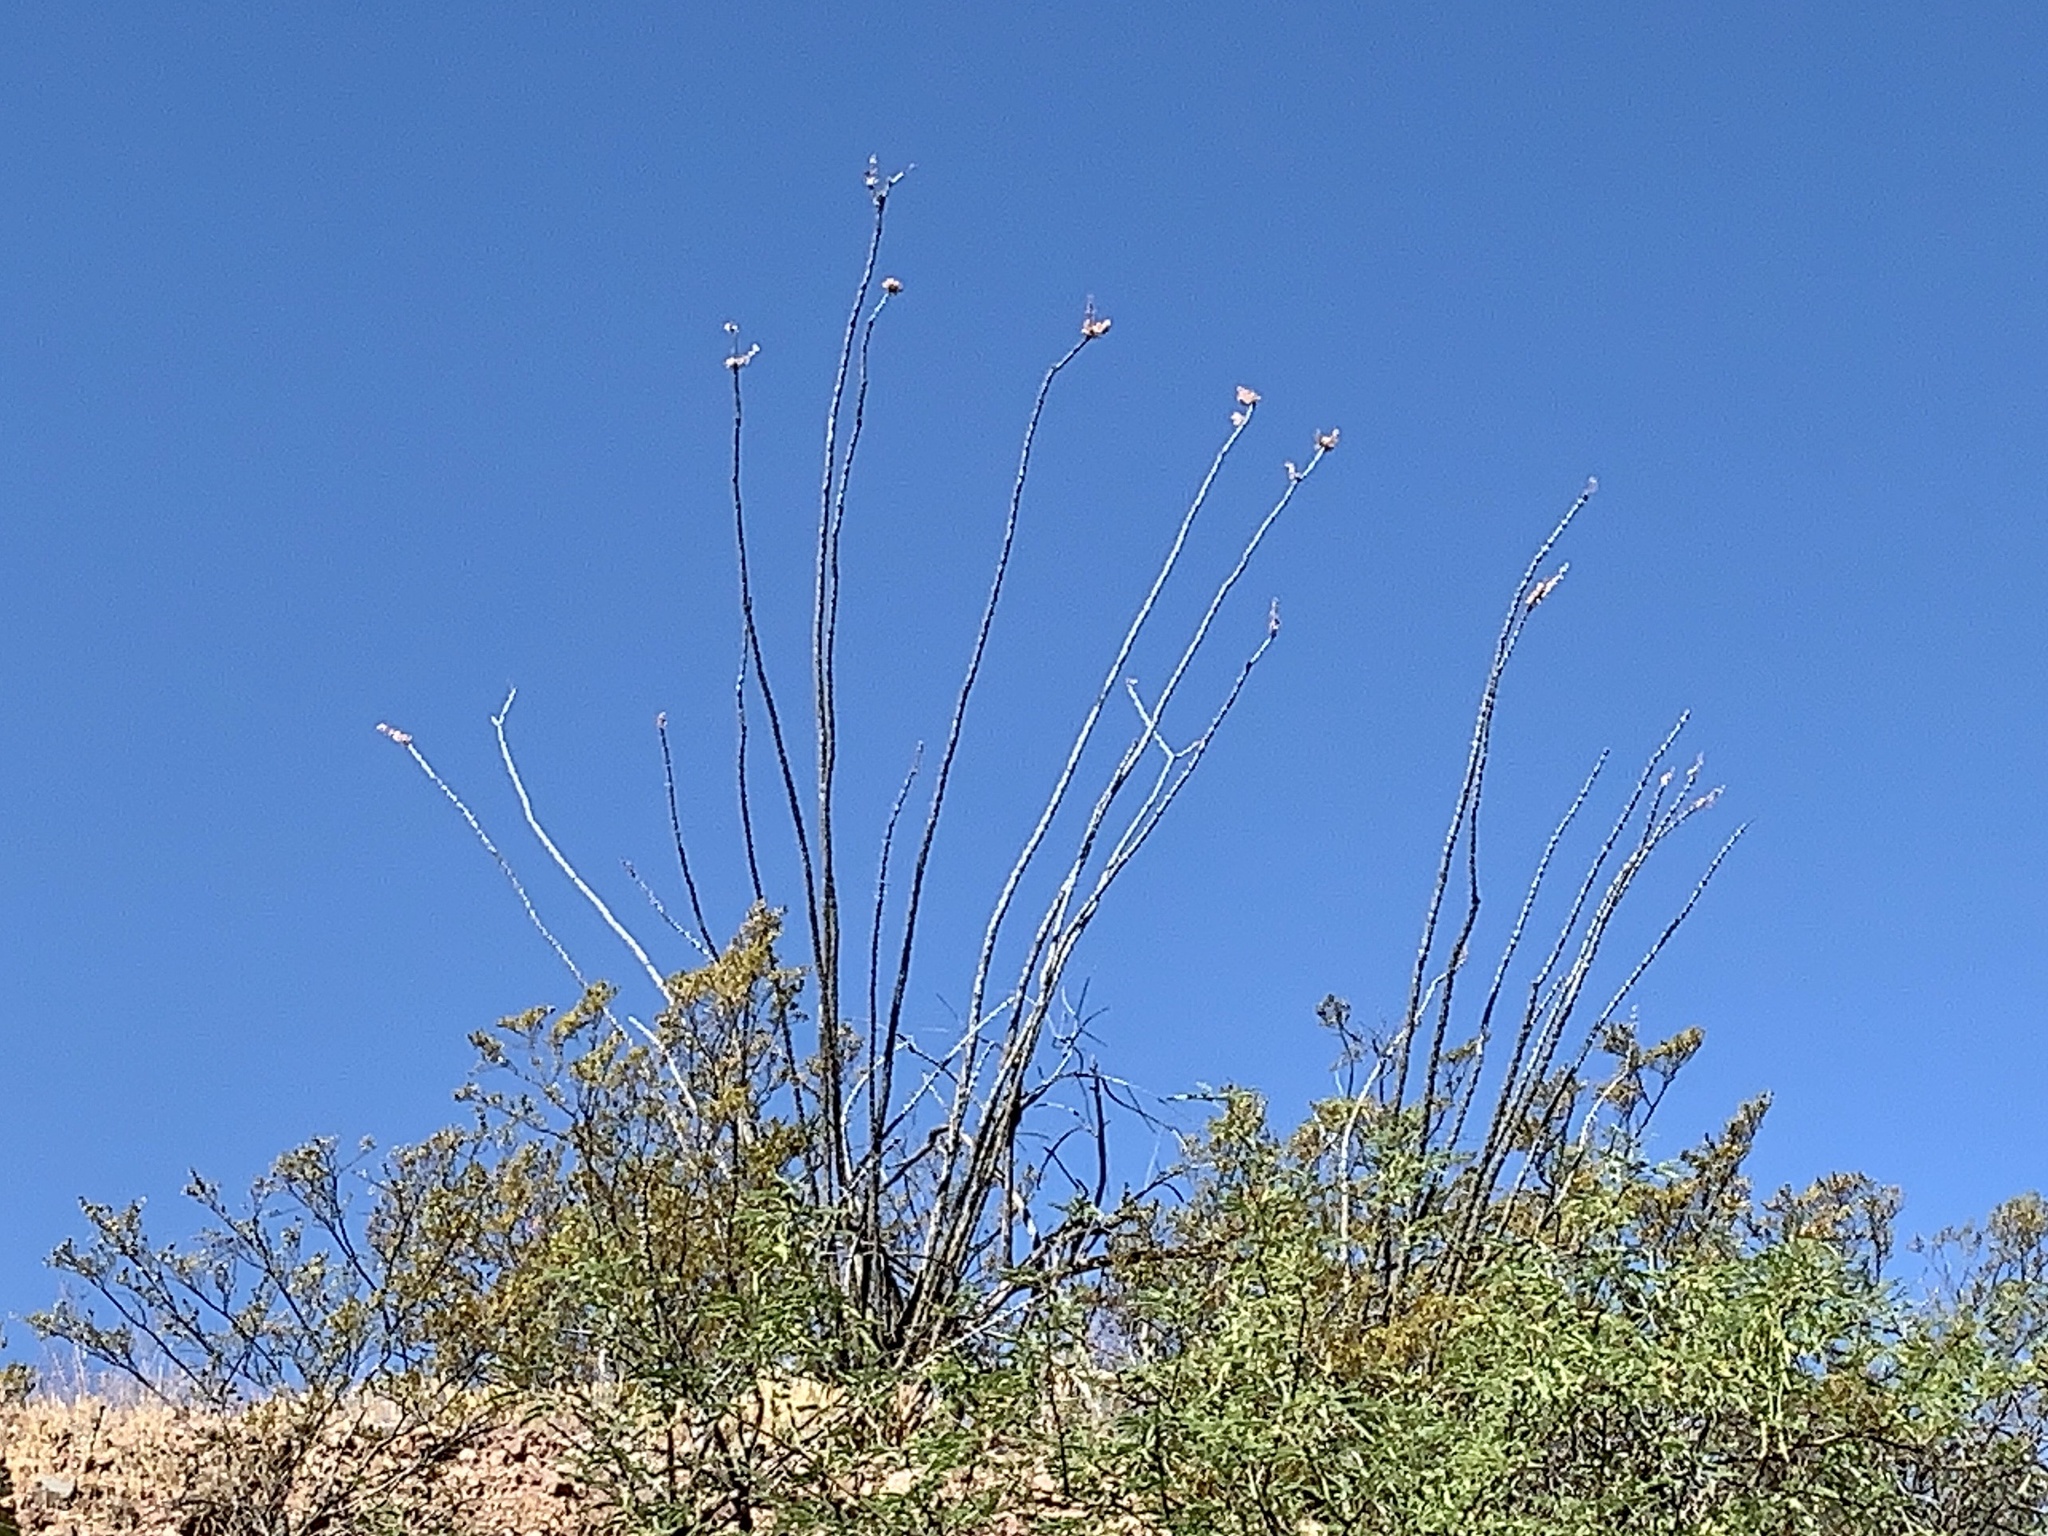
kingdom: Plantae
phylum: Tracheophyta
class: Magnoliopsida
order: Ericales
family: Fouquieriaceae
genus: Fouquieria
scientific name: Fouquieria splendens
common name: Vine-cactus
